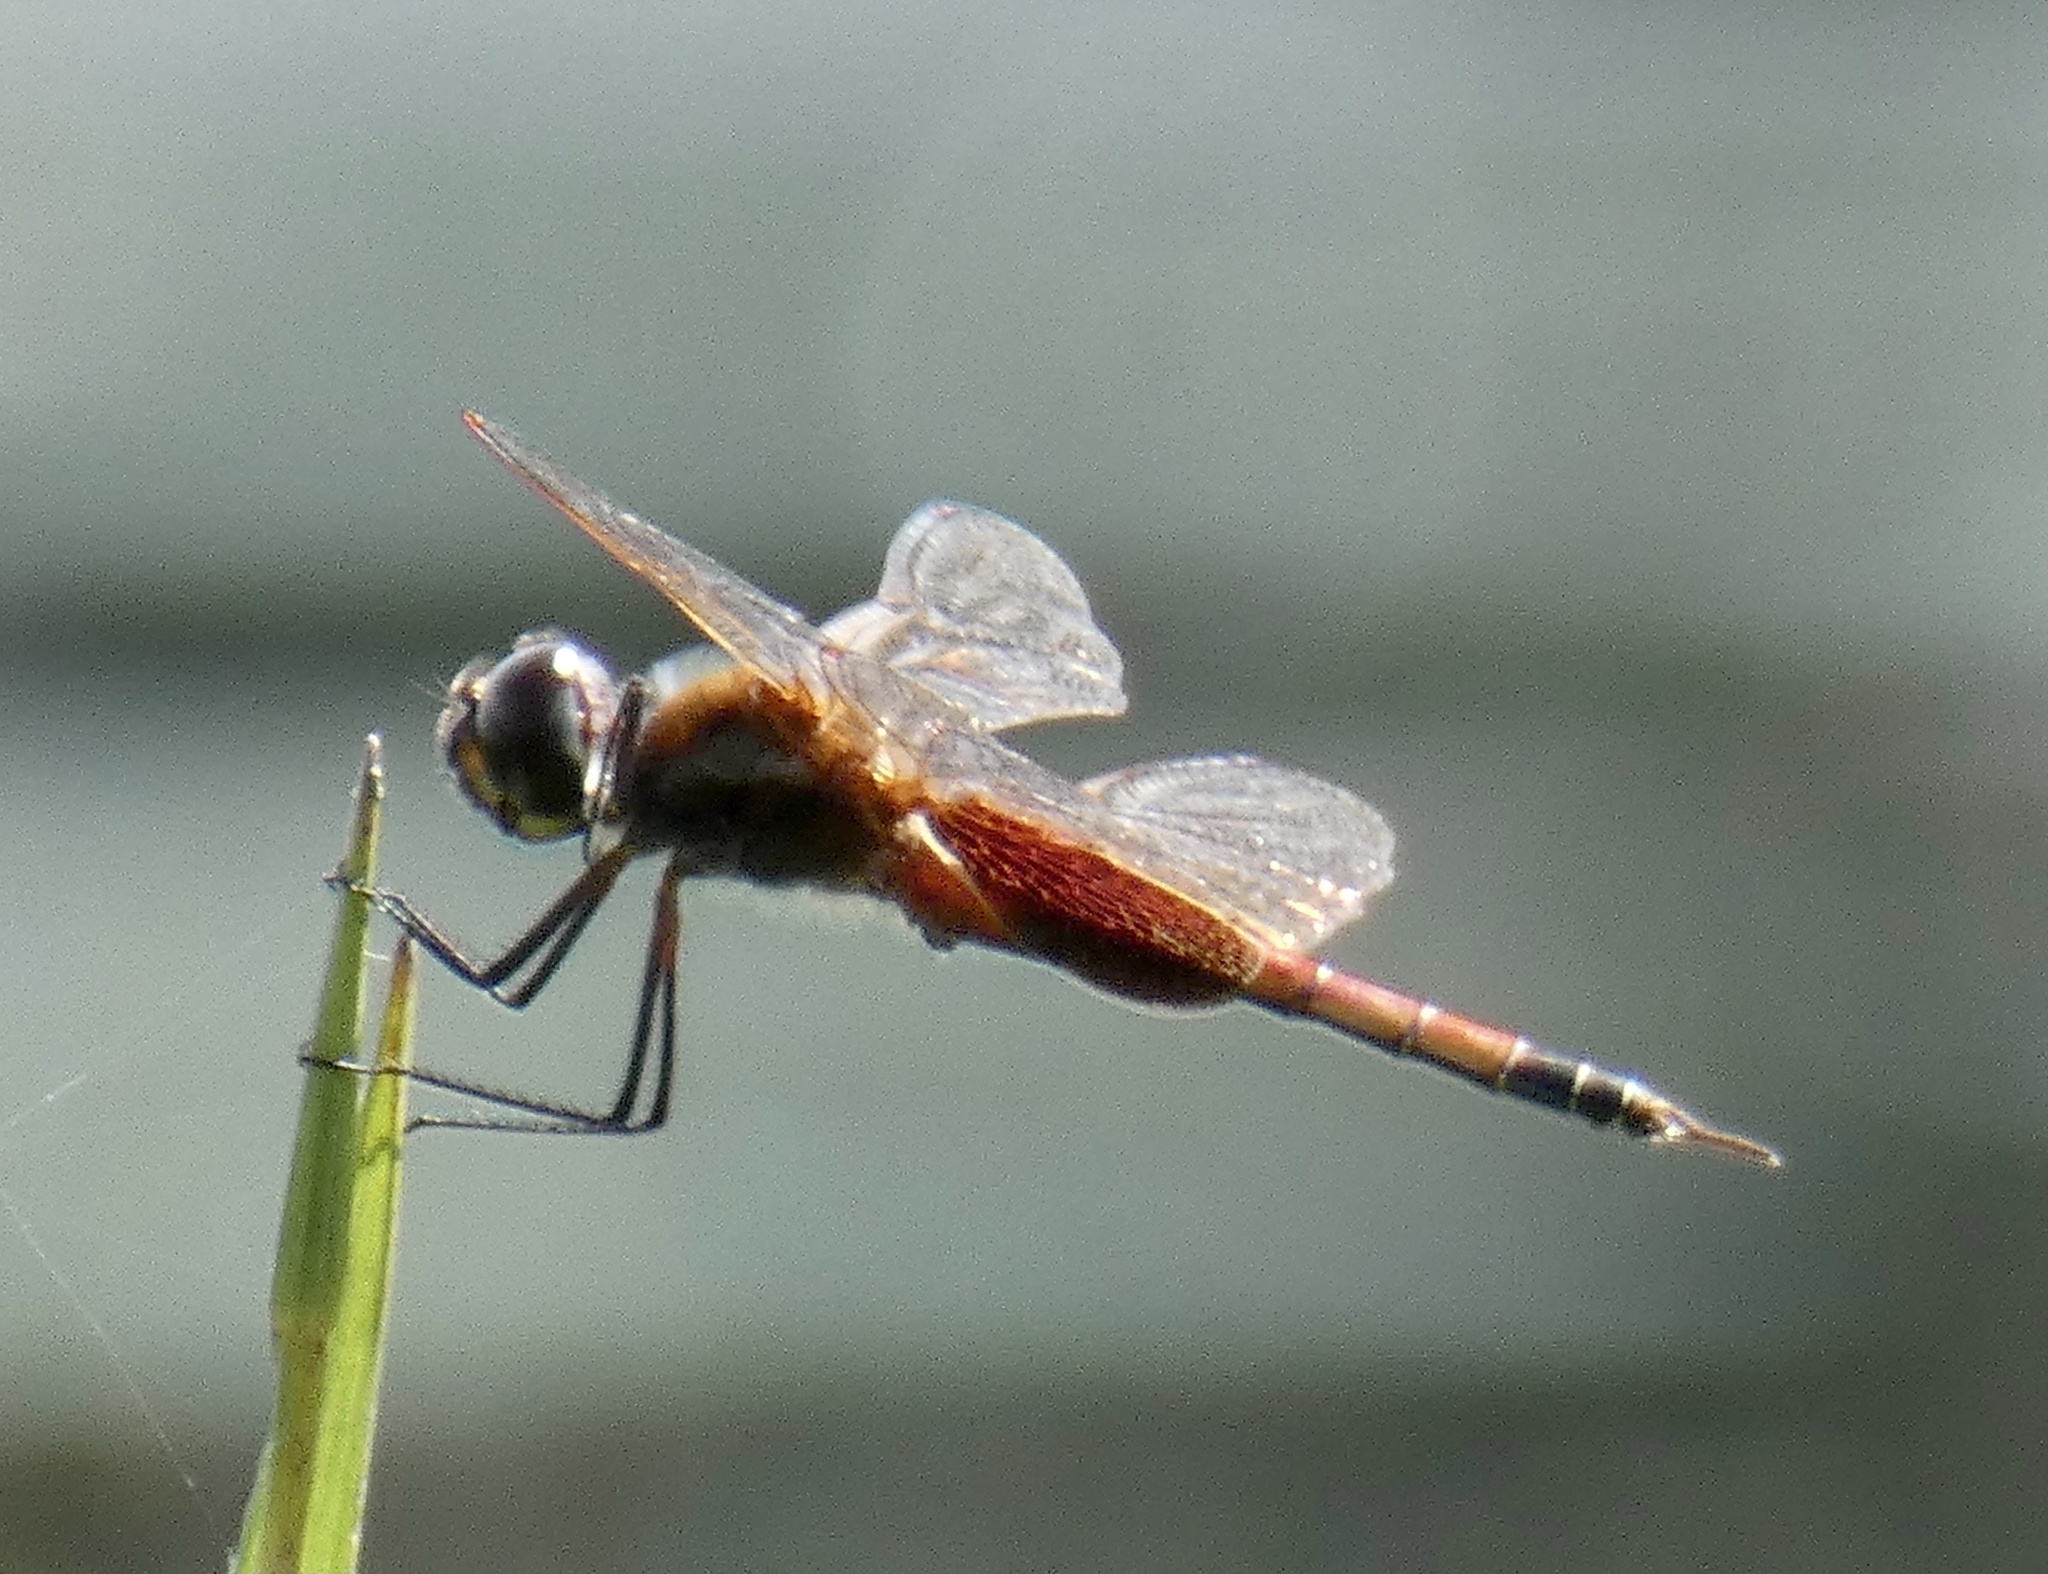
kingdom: Animalia
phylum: Arthropoda
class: Insecta
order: Odonata
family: Libellulidae
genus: Tramea
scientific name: Tramea rustica
